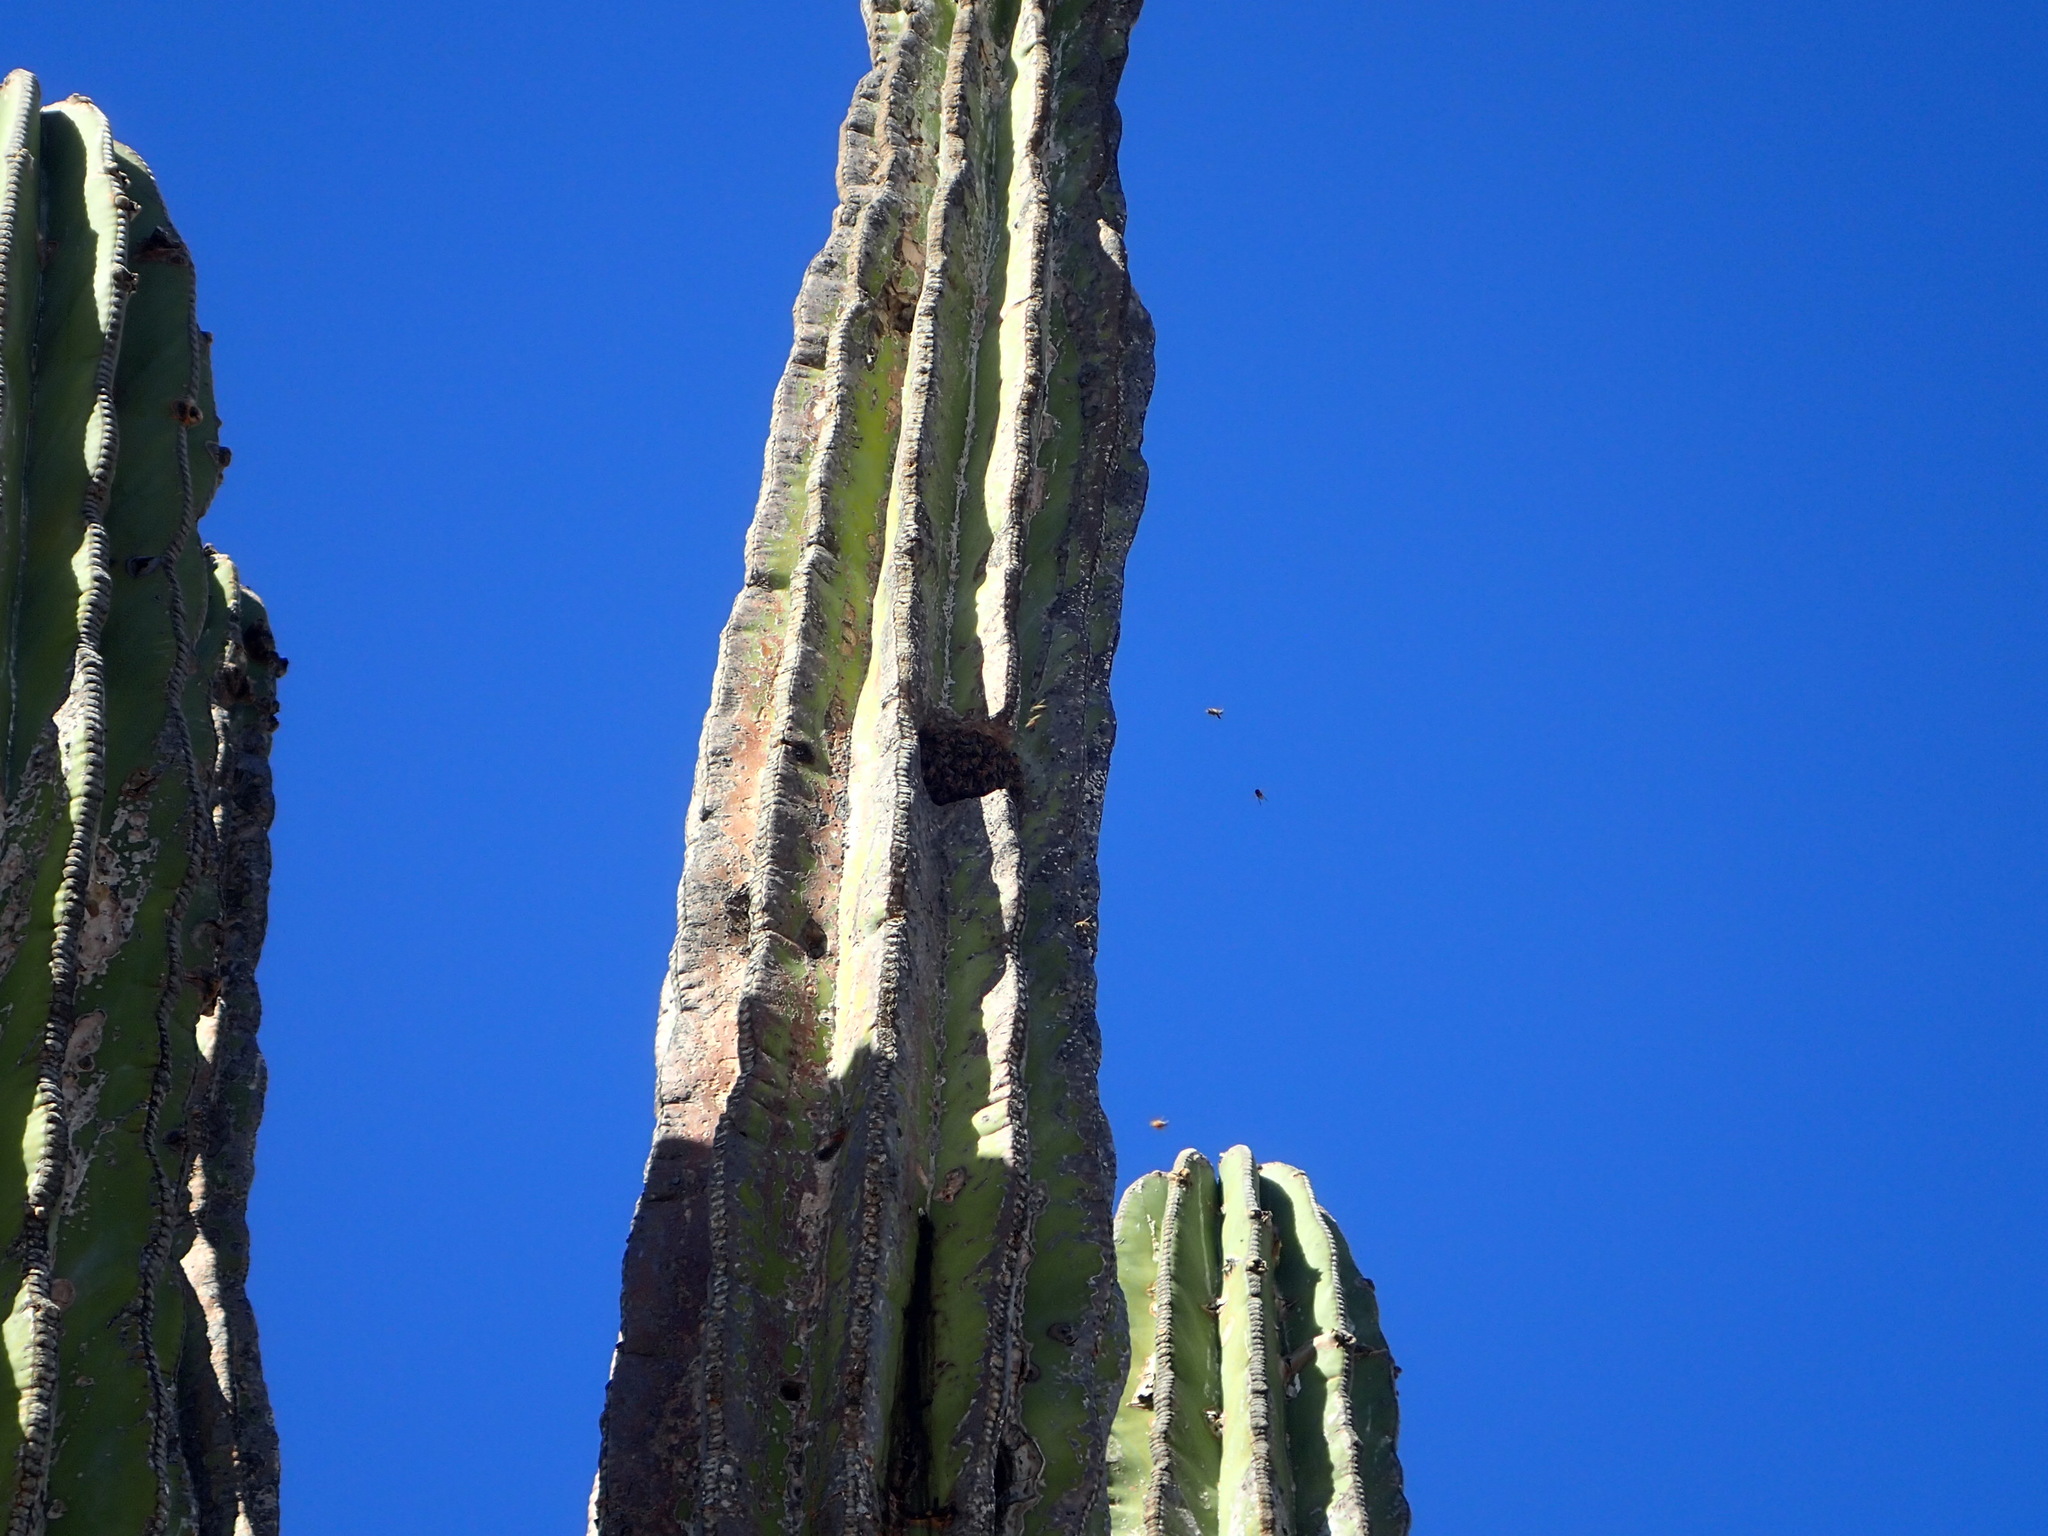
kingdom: Animalia
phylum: Arthropoda
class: Insecta
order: Hymenoptera
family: Apidae
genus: Apis
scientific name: Apis mellifera
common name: Honey bee
